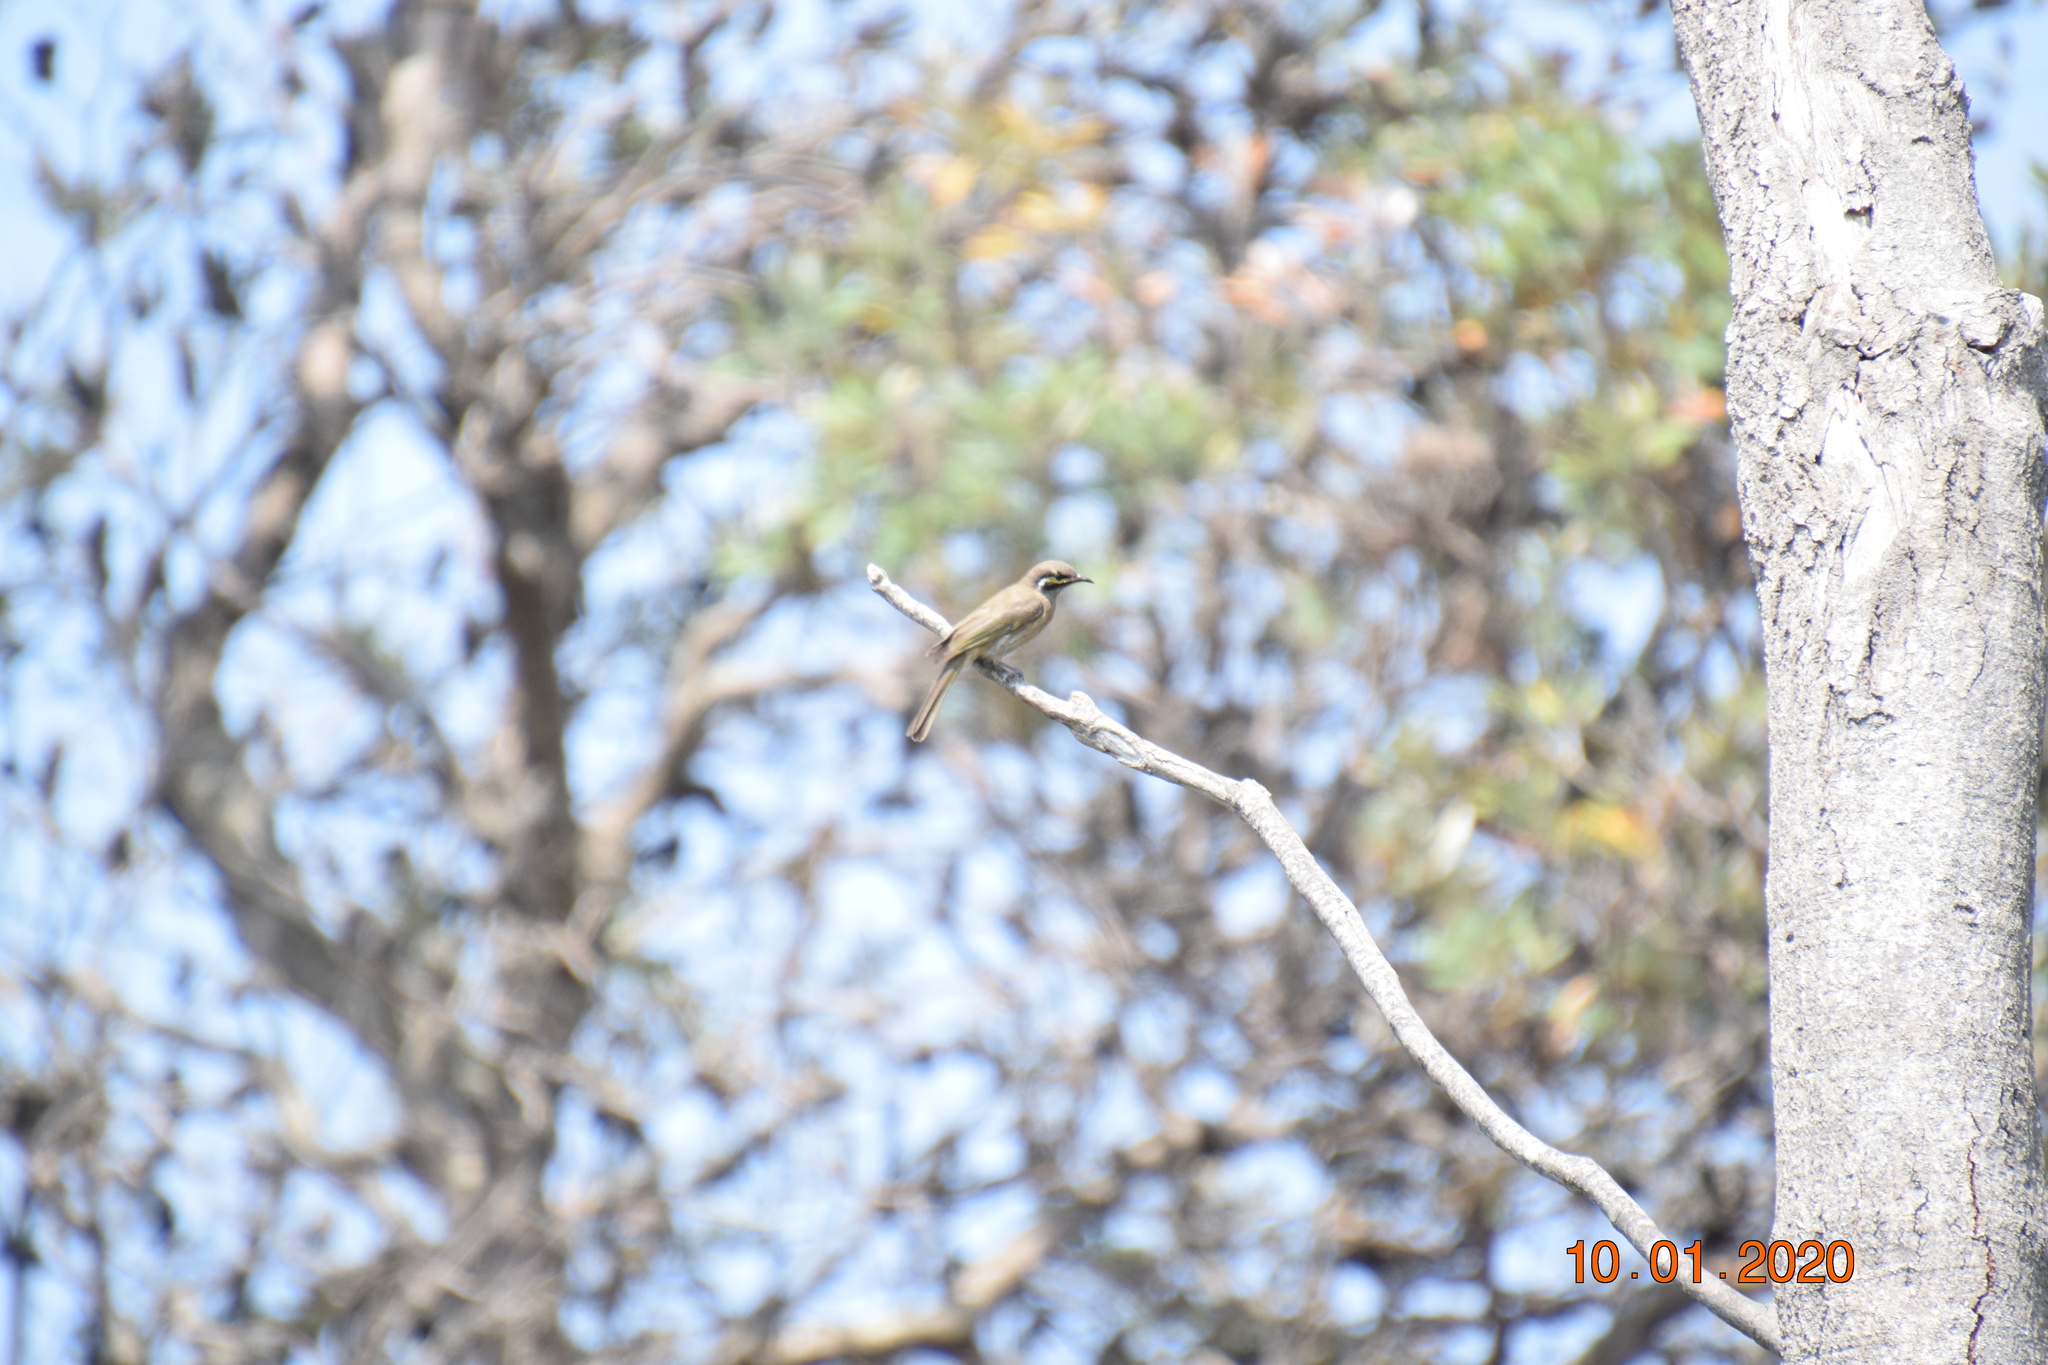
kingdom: Animalia
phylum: Chordata
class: Aves
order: Passeriformes
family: Meliphagidae
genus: Caligavis
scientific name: Caligavis chrysops
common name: Yellow-faced honeyeater
